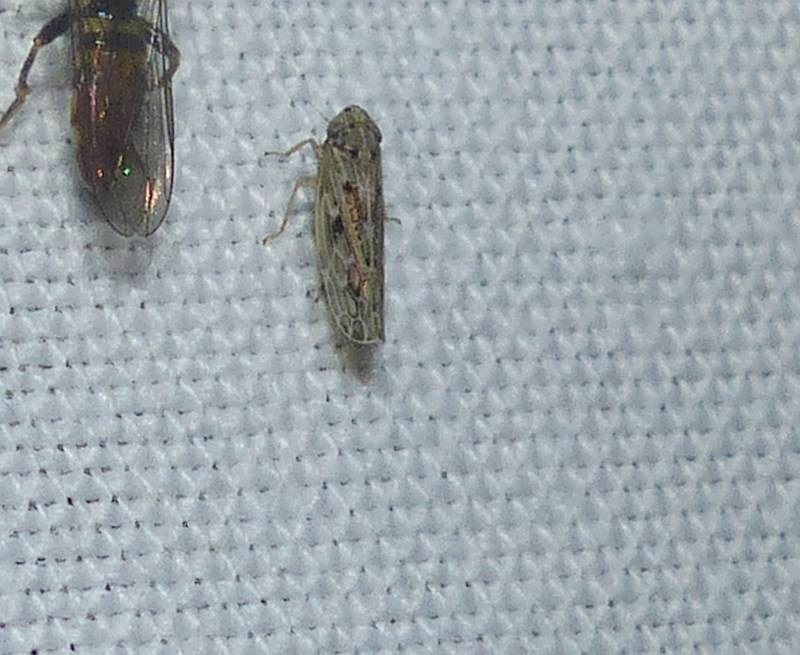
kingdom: Animalia
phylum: Arthropoda
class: Insecta
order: Hemiptera
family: Cicadellidae
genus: Endria
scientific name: Endria inimicus
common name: Painted leafhopper
